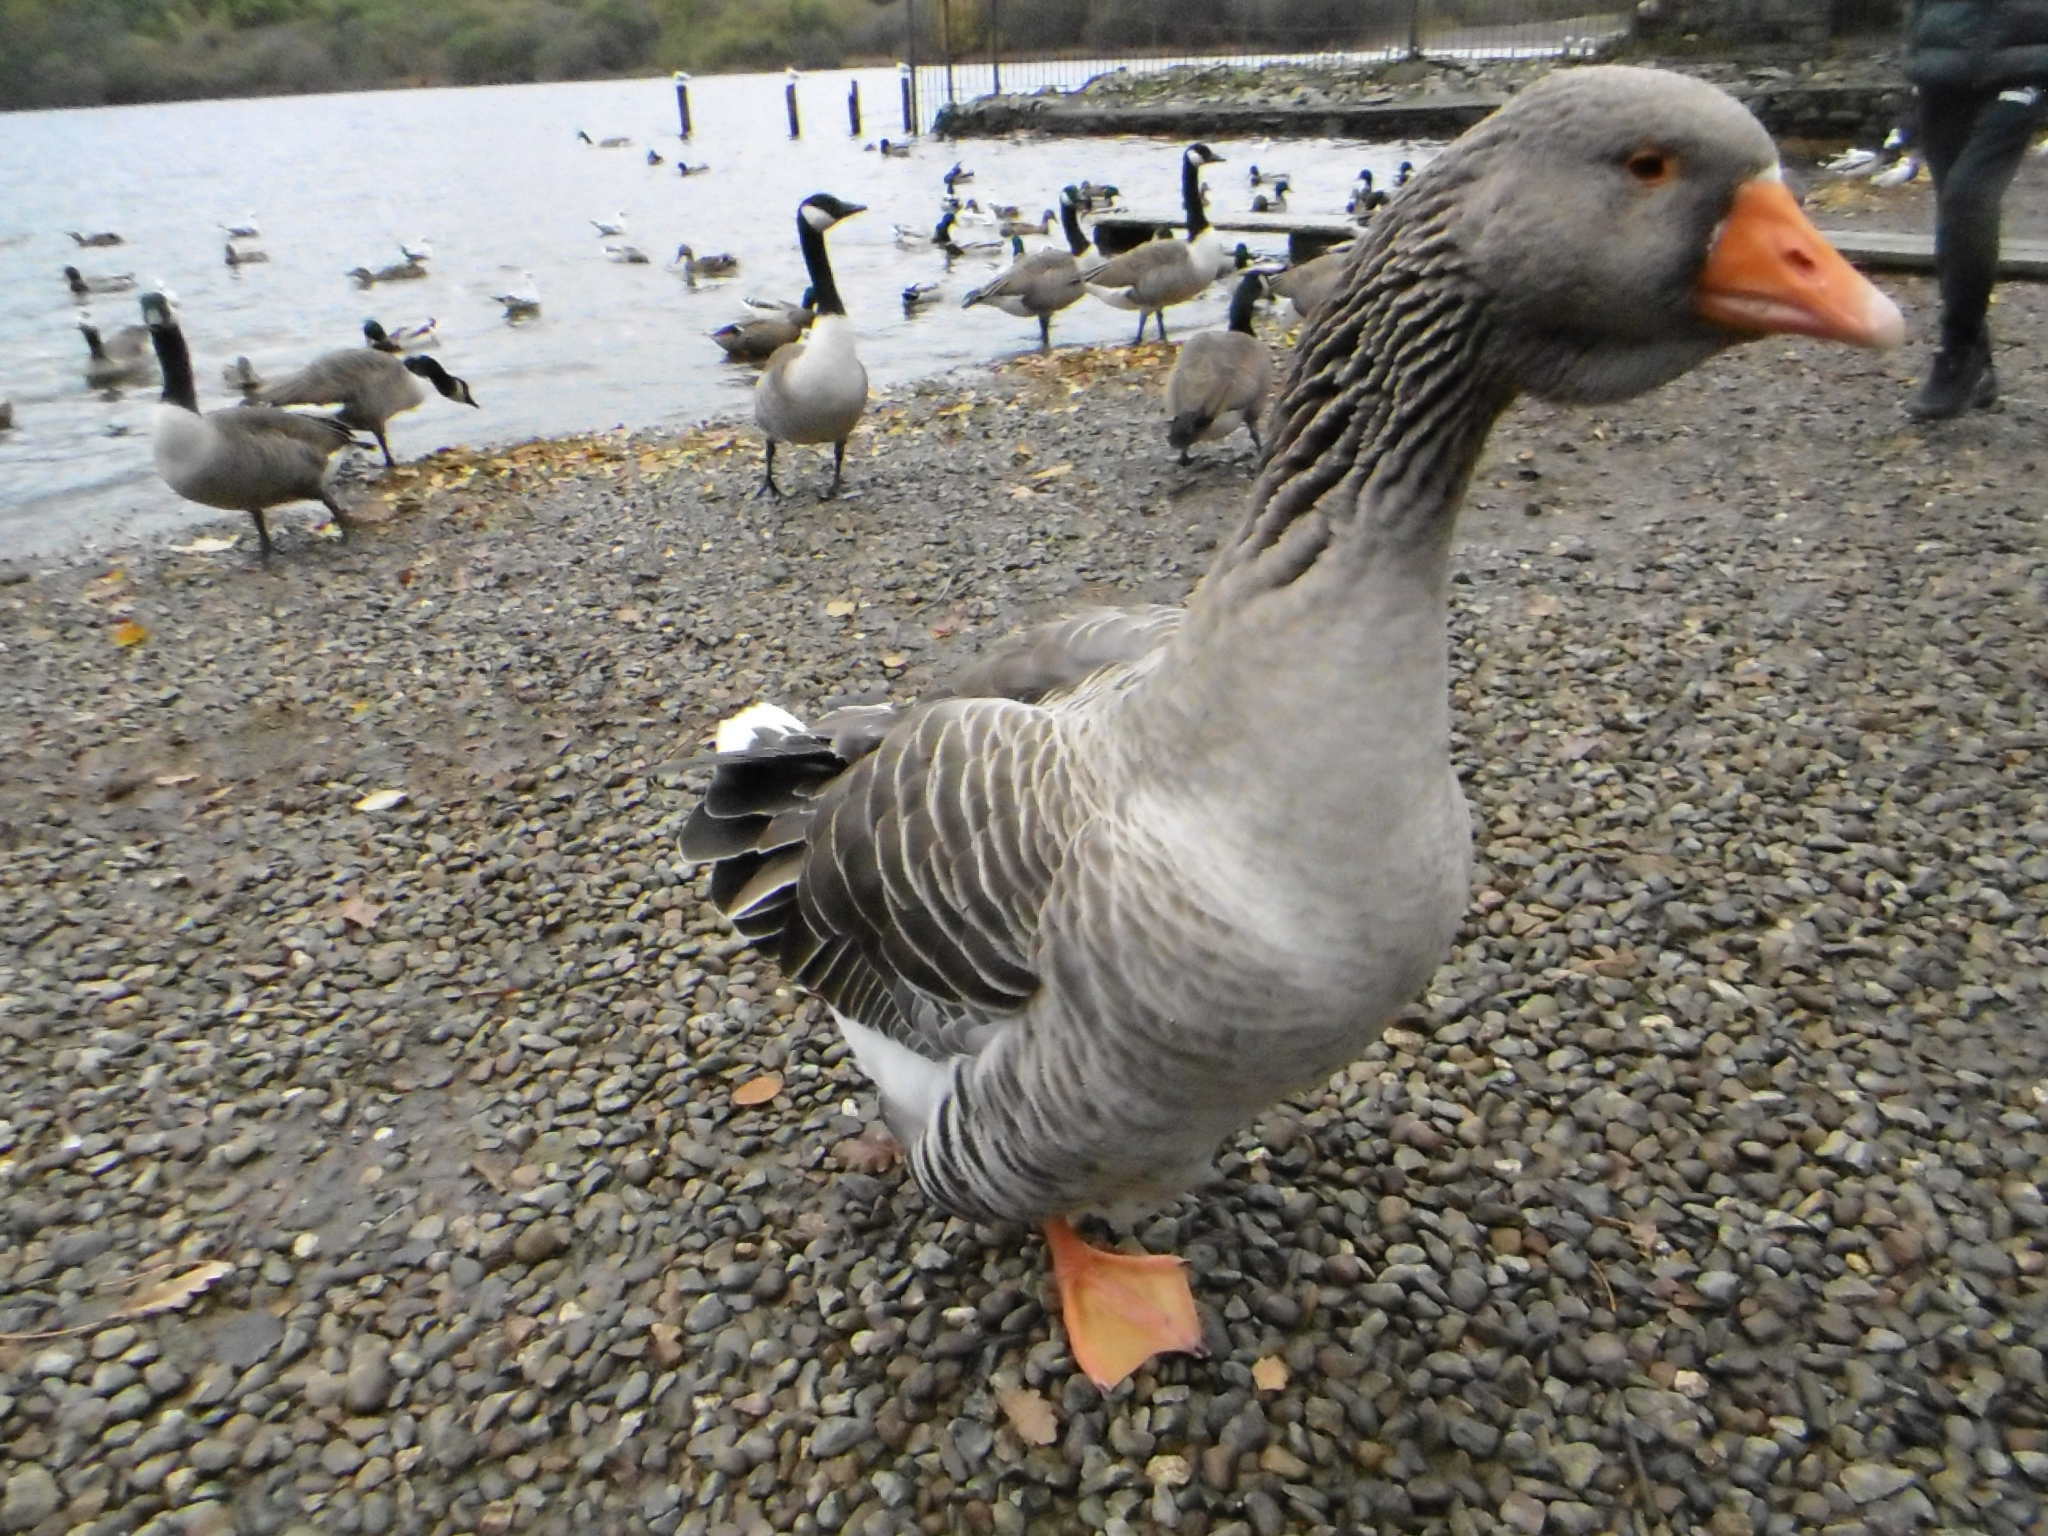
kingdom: Animalia
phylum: Chordata
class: Aves
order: Anseriformes
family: Anatidae
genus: Anser
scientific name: Anser anser
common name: Greylag goose
